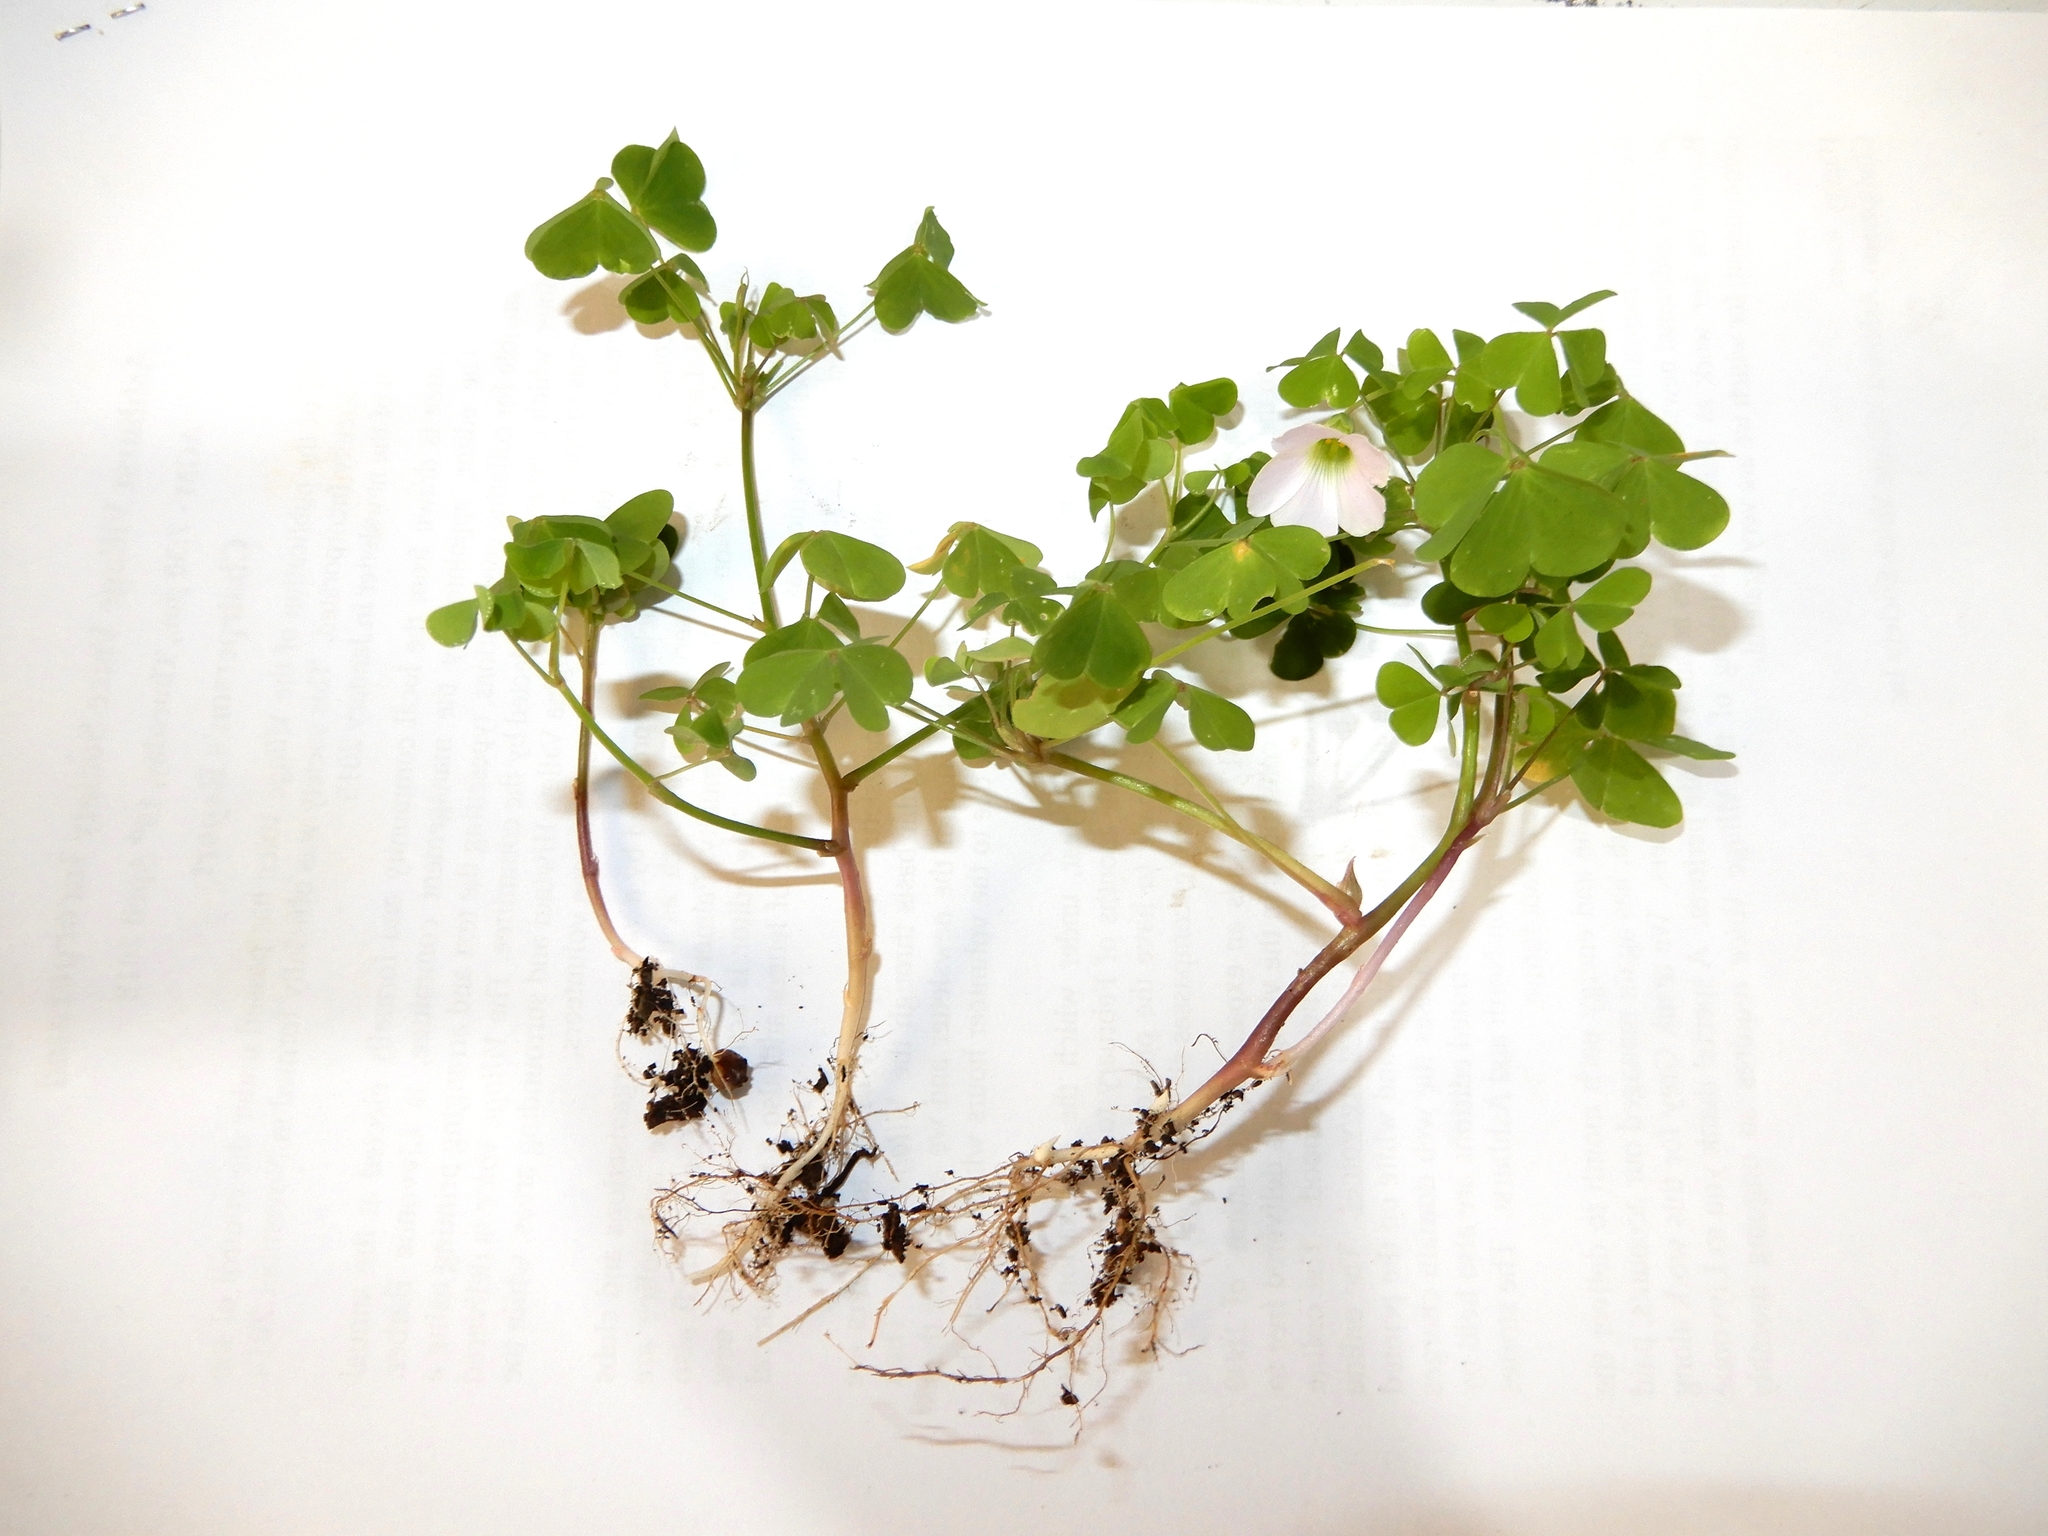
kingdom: Plantae
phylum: Tracheophyta
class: Magnoliopsida
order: Oxalidales
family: Oxalidaceae
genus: Oxalis
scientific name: Oxalis incarnata
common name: Pale pink-sorrel
